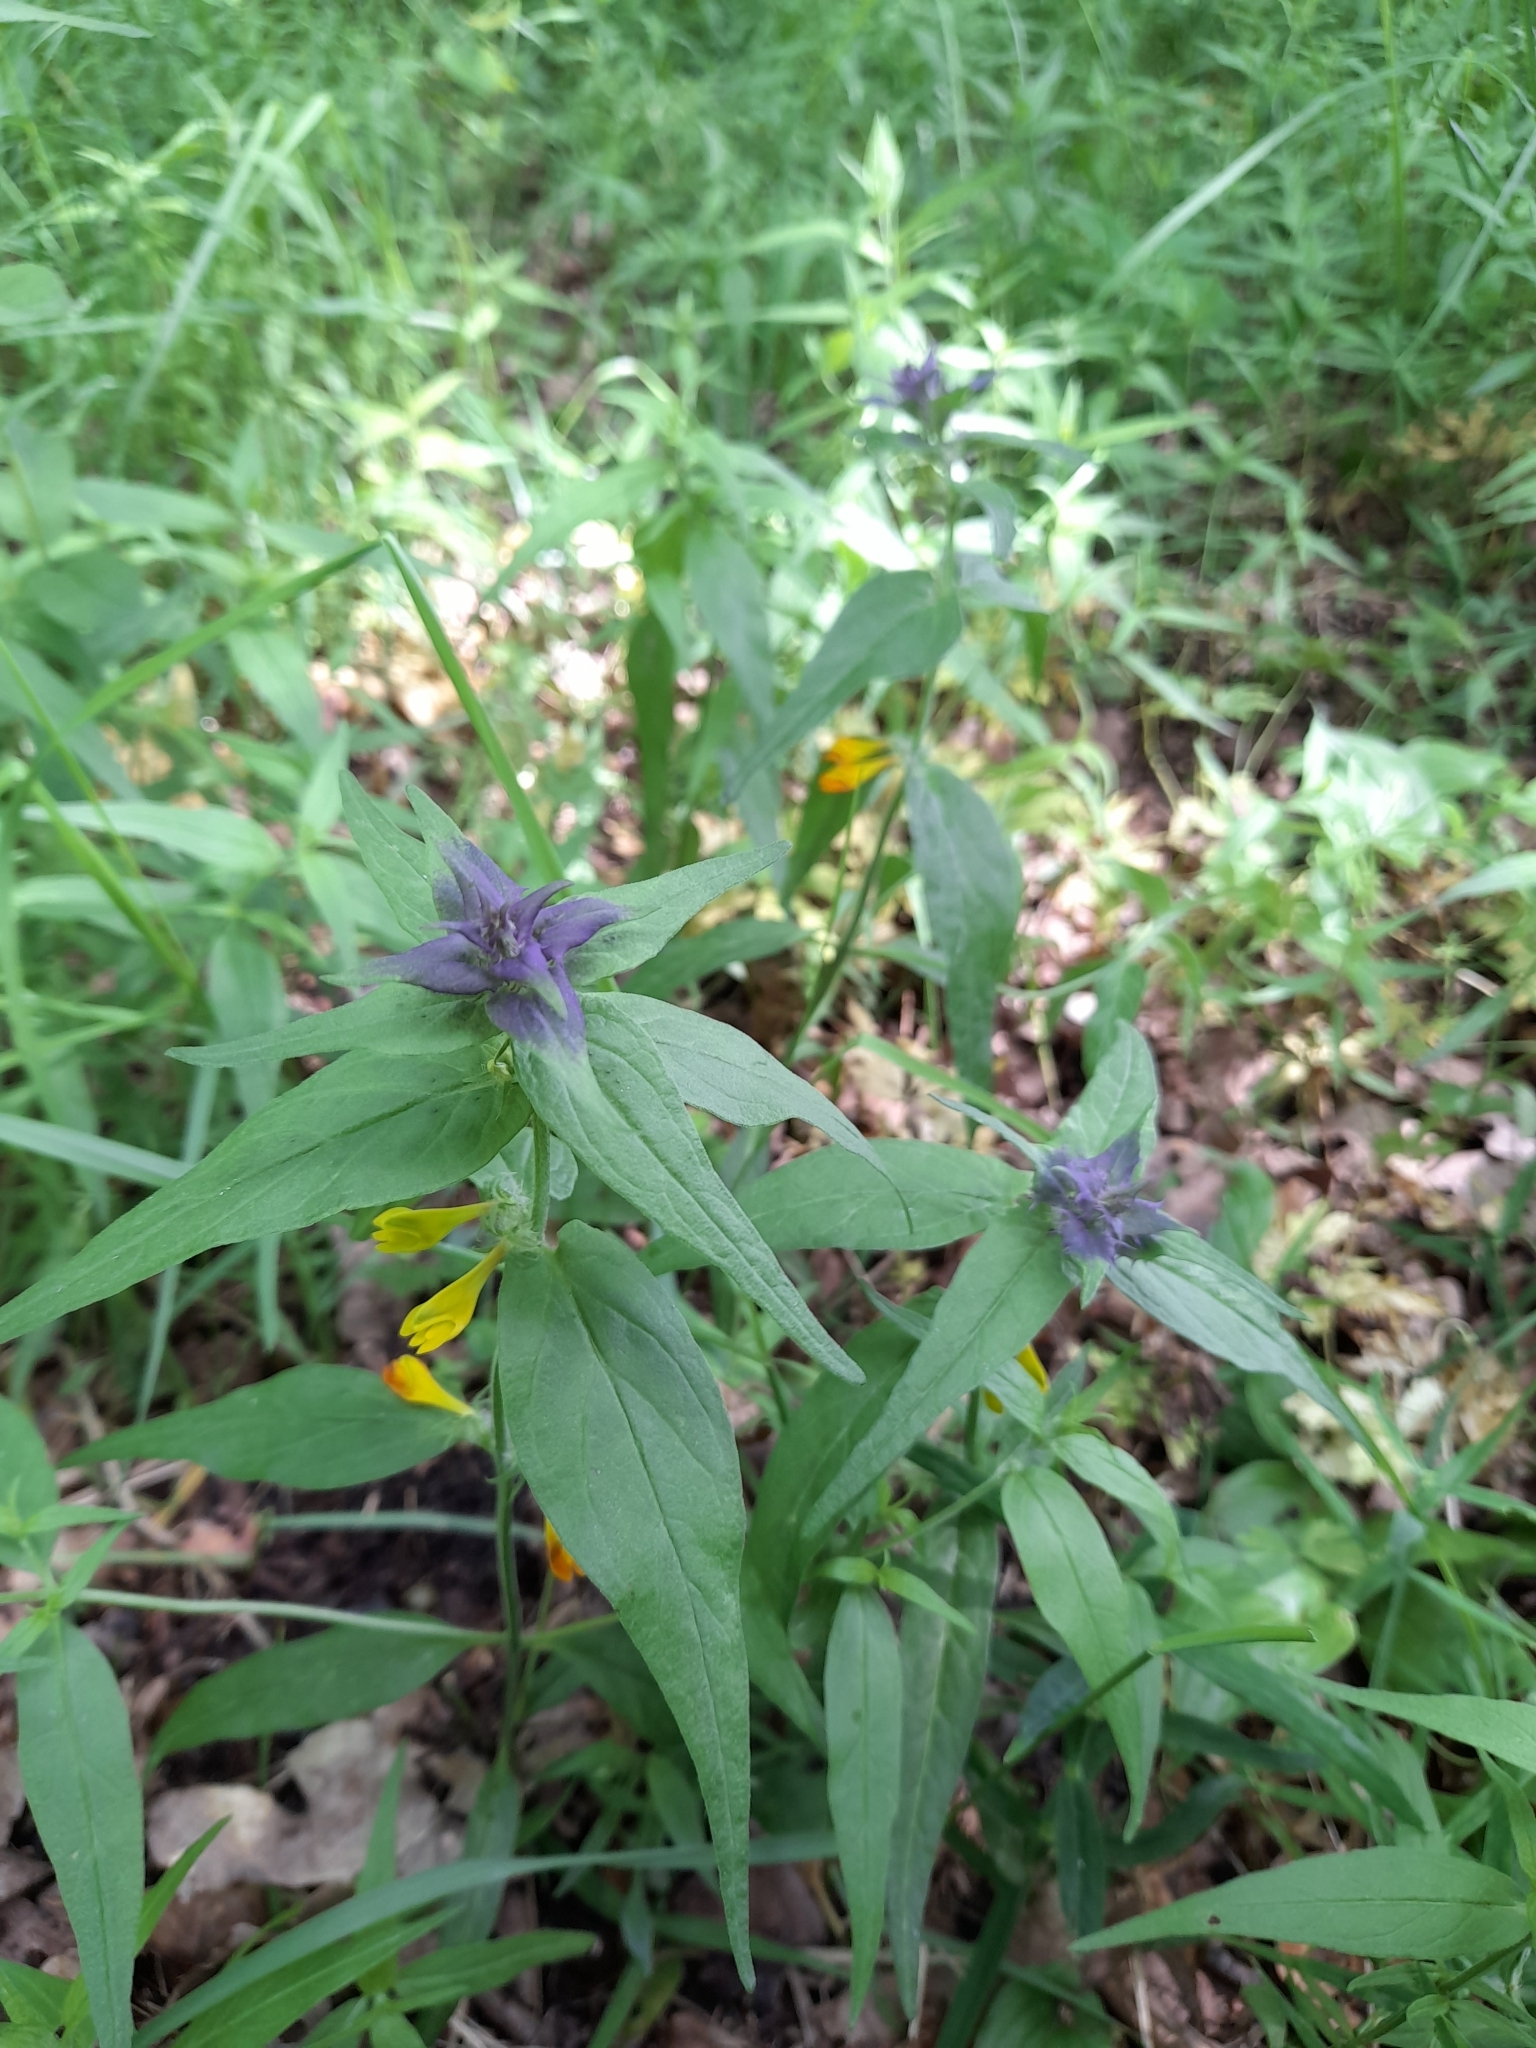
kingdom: Plantae
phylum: Tracheophyta
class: Magnoliopsida
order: Lamiales
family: Orobanchaceae
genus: Melampyrum
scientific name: Melampyrum nemorosum
